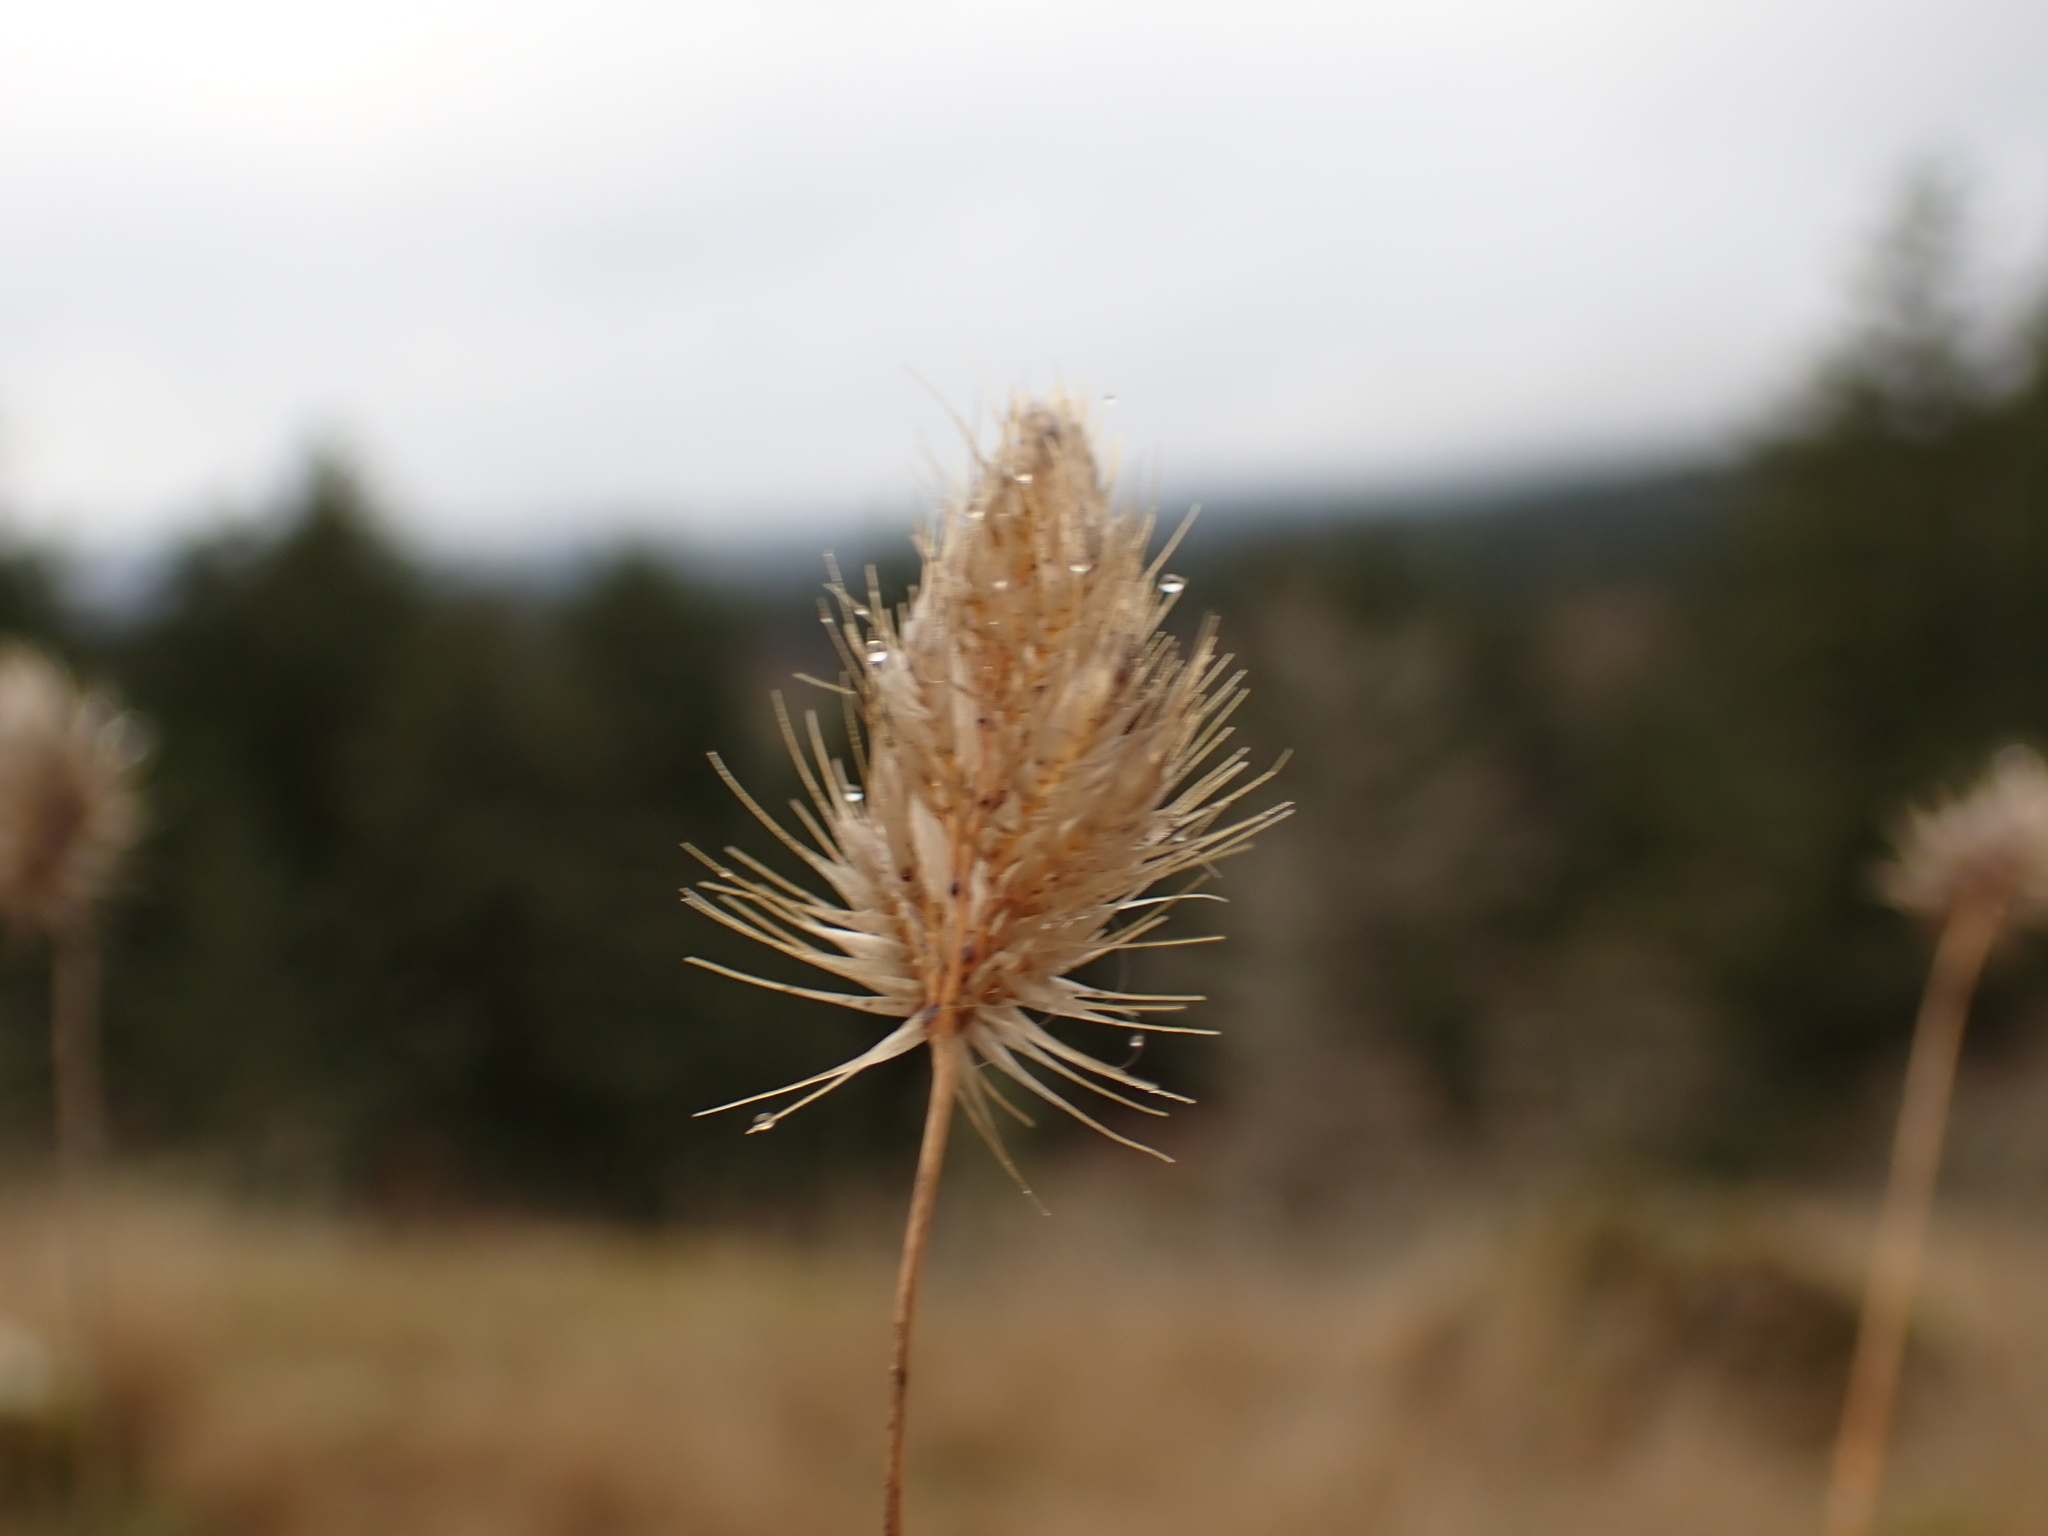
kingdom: Plantae
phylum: Tracheophyta
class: Liliopsida
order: Poales
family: Poaceae
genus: Cynosurus
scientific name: Cynosurus echinatus
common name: Rough dog's-tail
